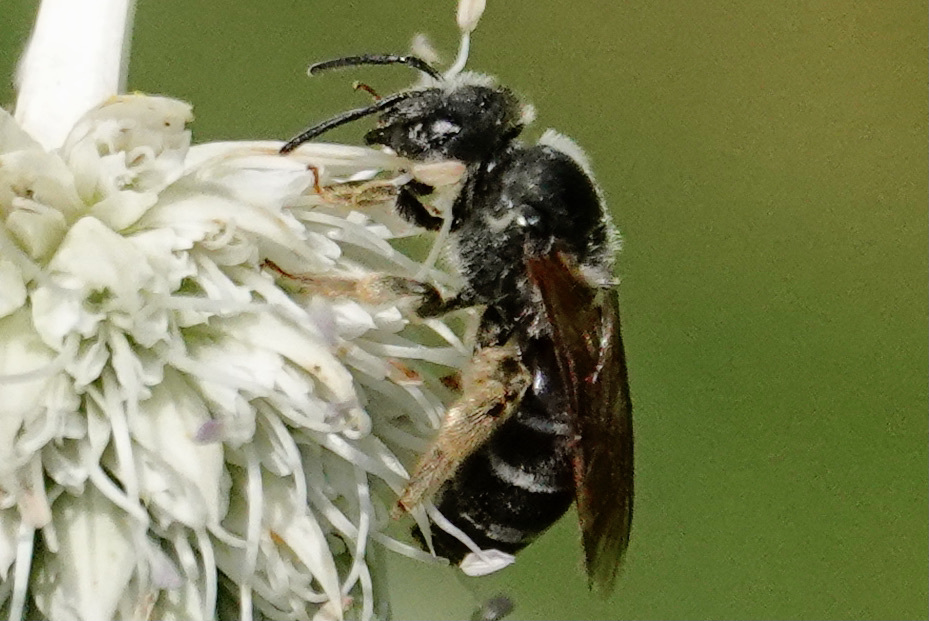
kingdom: Animalia
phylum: Arthropoda
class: Insecta
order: Hymenoptera
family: Halictidae
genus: Halictus
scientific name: Halictus rubicundus
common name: Orange-legged furrow bee
